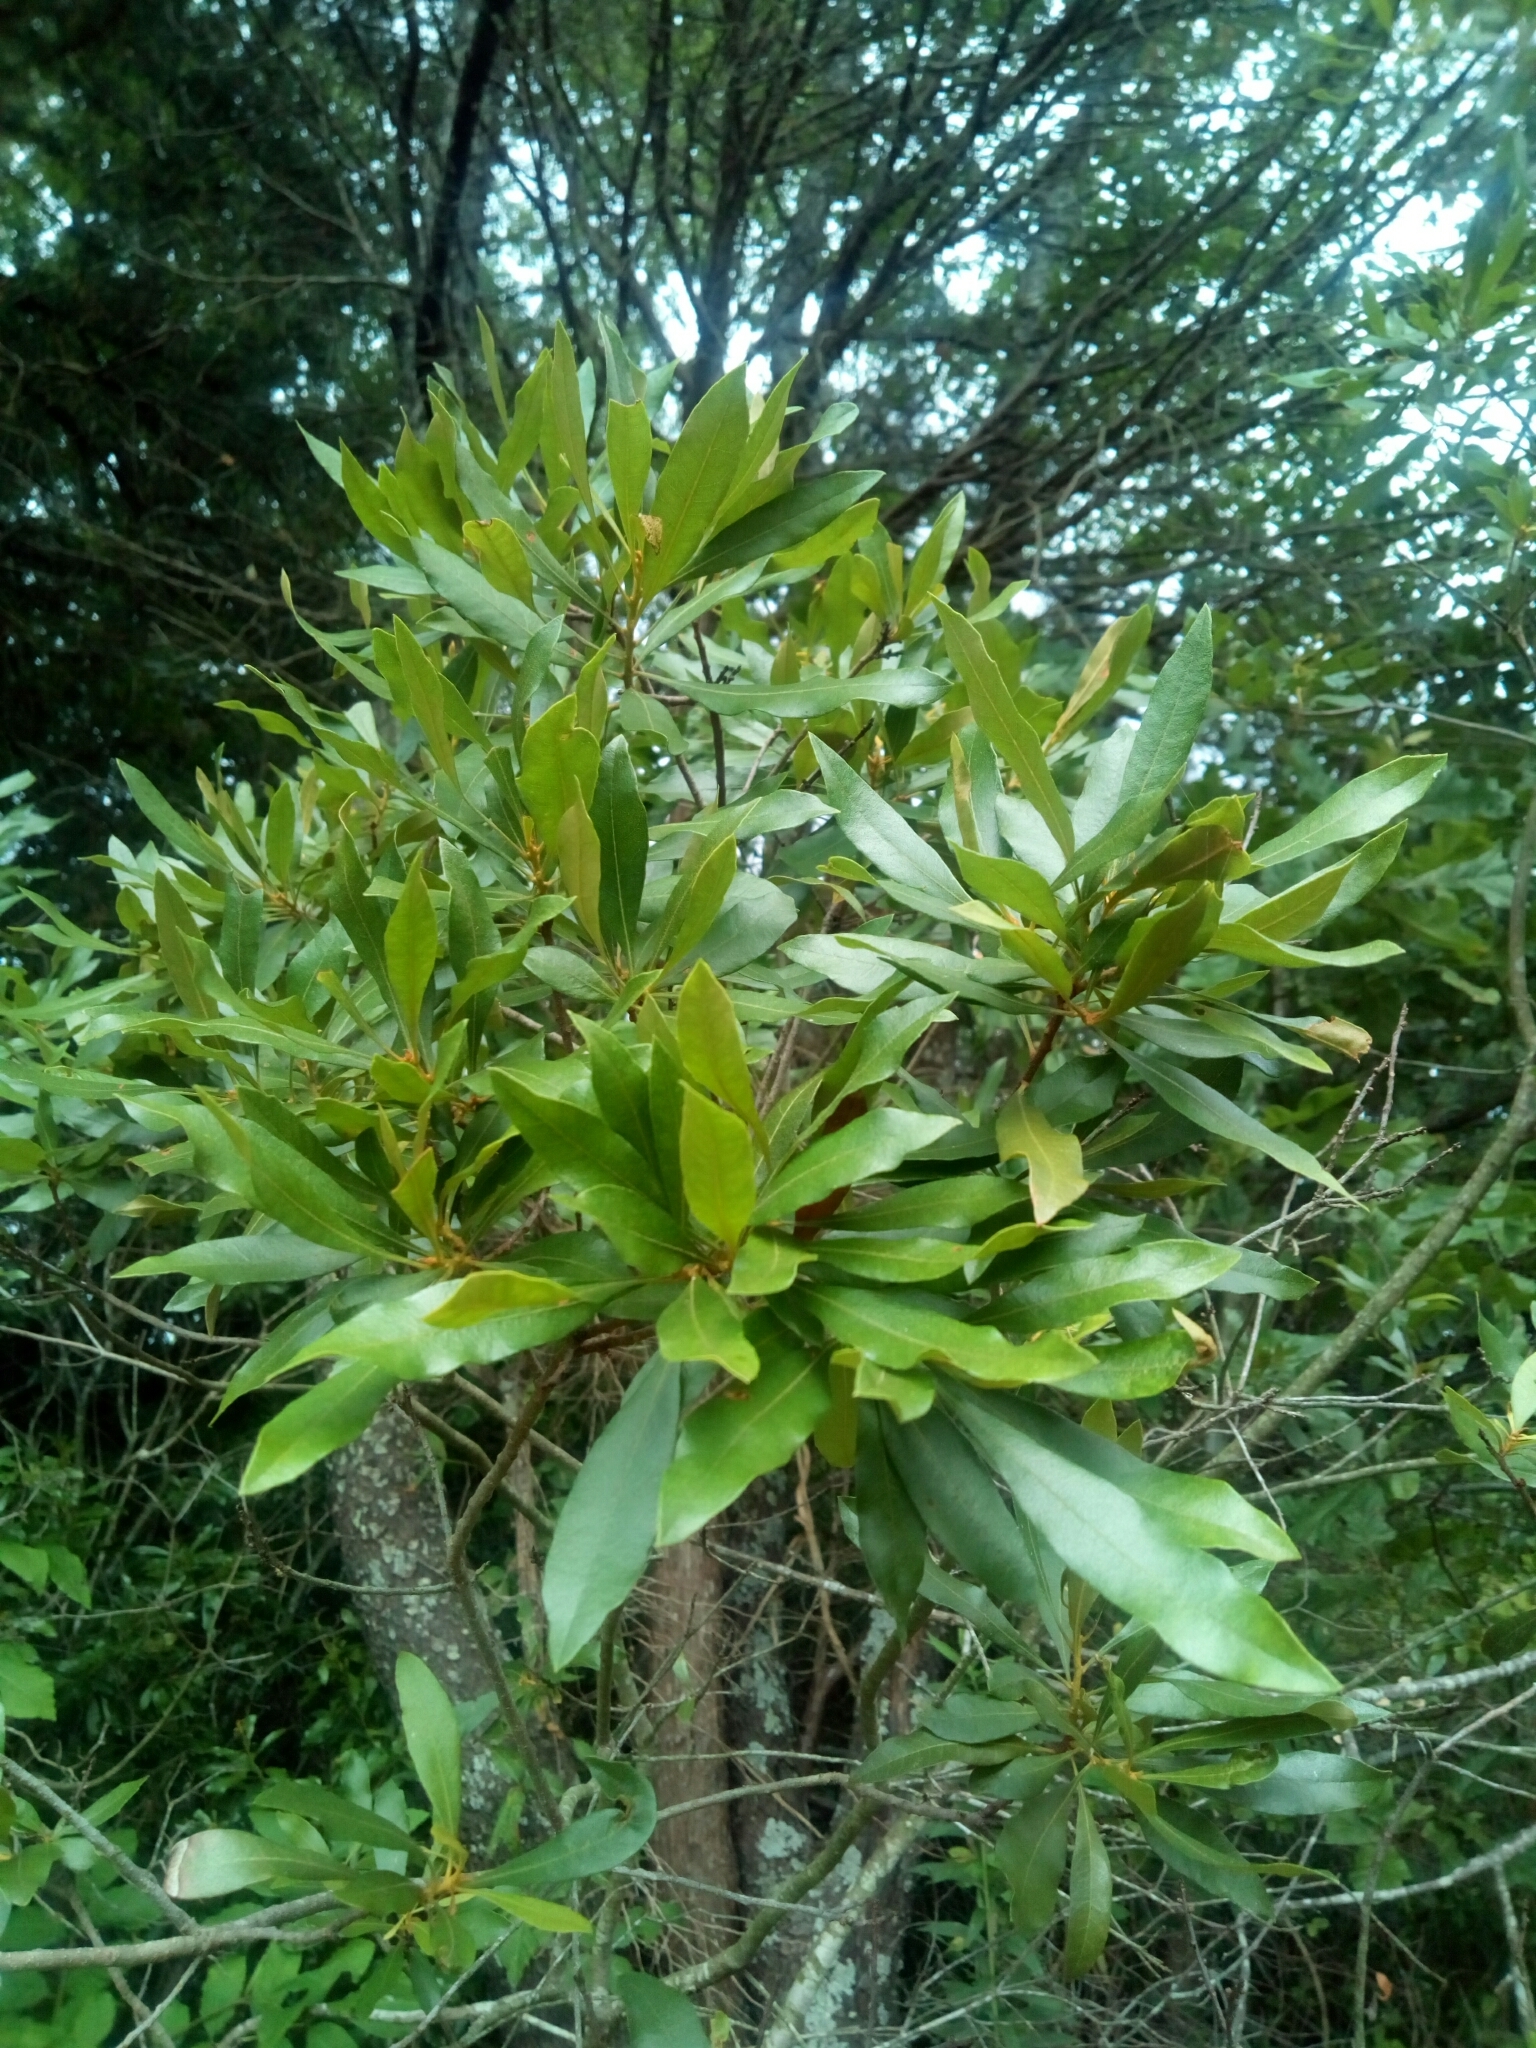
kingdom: Plantae
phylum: Tracheophyta
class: Magnoliopsida
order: Fagales
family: Myricaceae
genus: Morella
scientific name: Morella cerifera
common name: Wax myrtle
